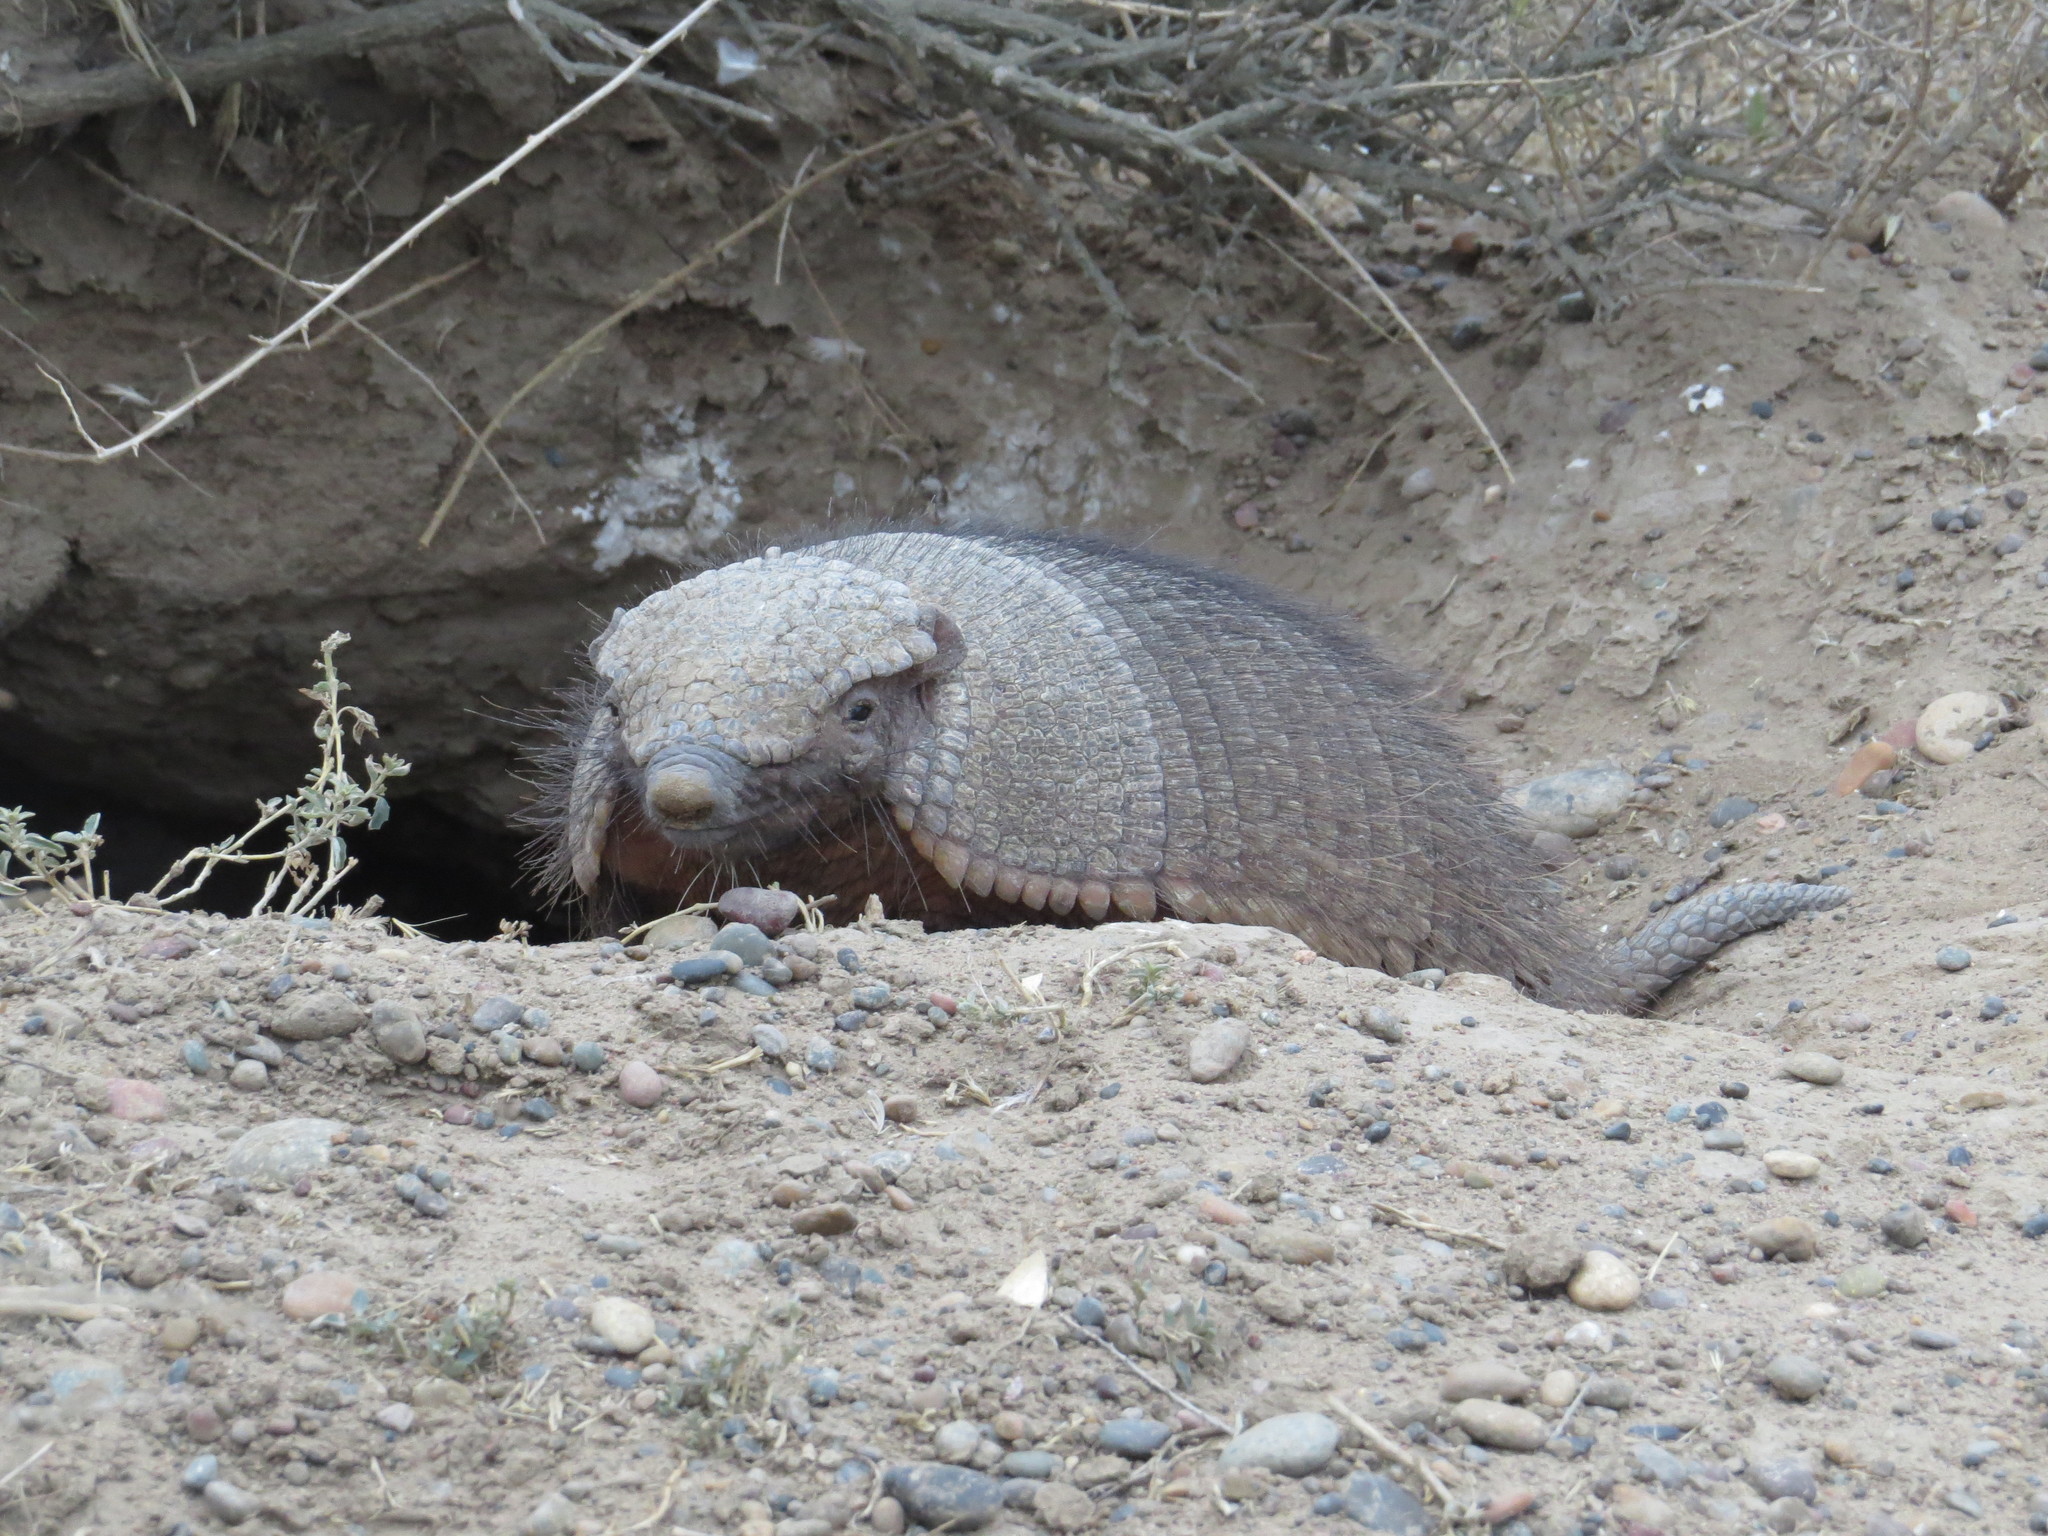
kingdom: Animalia
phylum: Chordata
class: Mammalia
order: Cingulata
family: Dasypodidae
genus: Chaetophractus
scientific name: Chaetophractus villosus
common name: Big hairy armadillo
